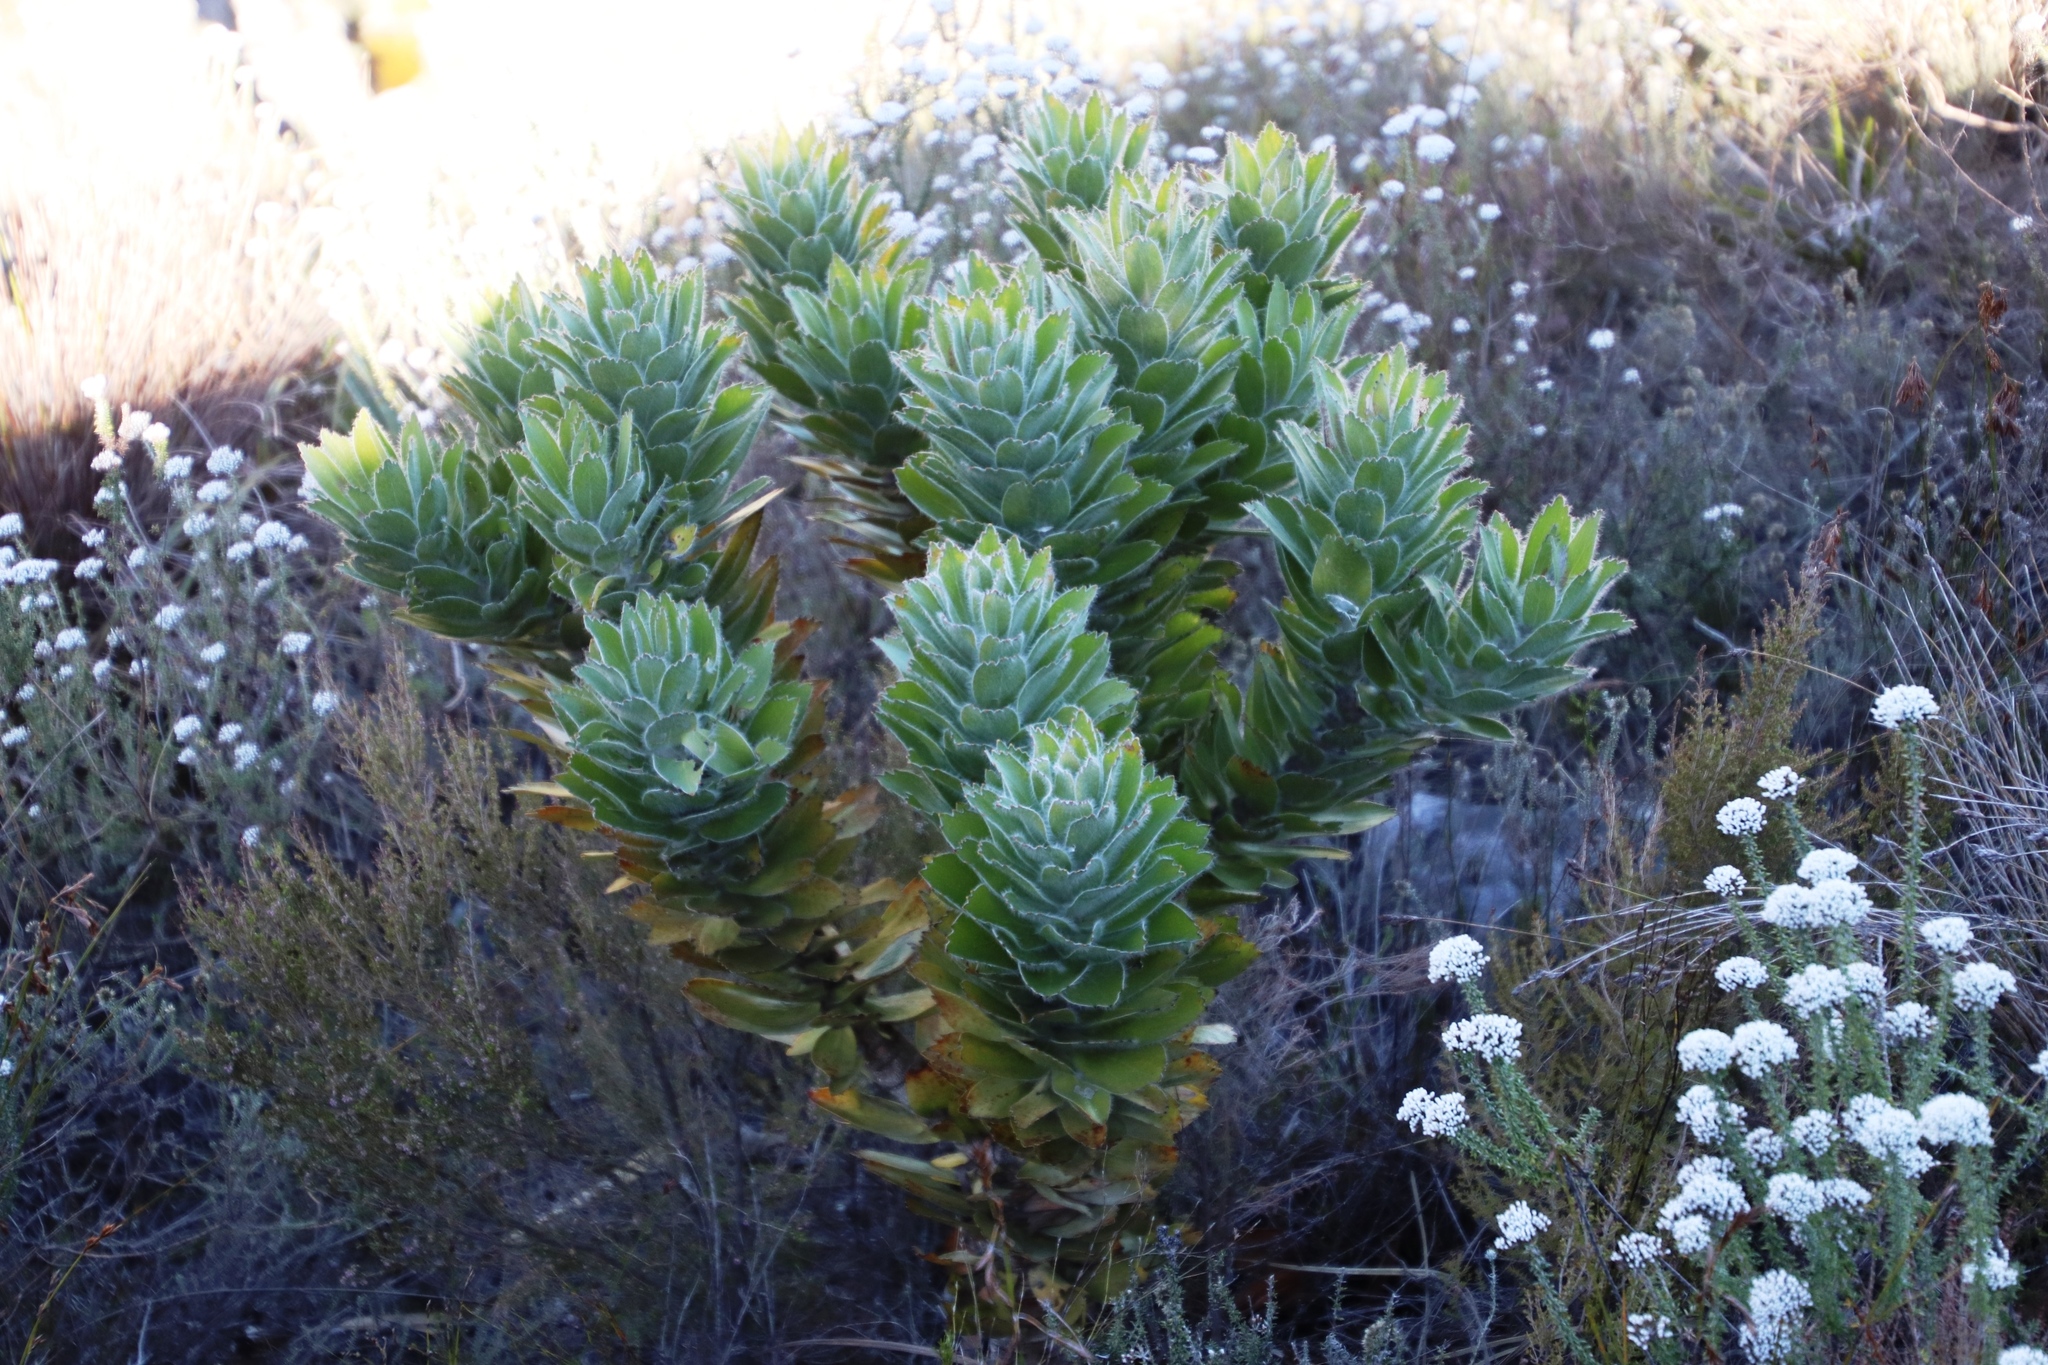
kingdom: Plantae
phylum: Tracheophyta
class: Magnoliopsida
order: Proteales
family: Proteaceae
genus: Leucospermum
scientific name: Leucospermum conocarpodendron
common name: Tree pincushion
